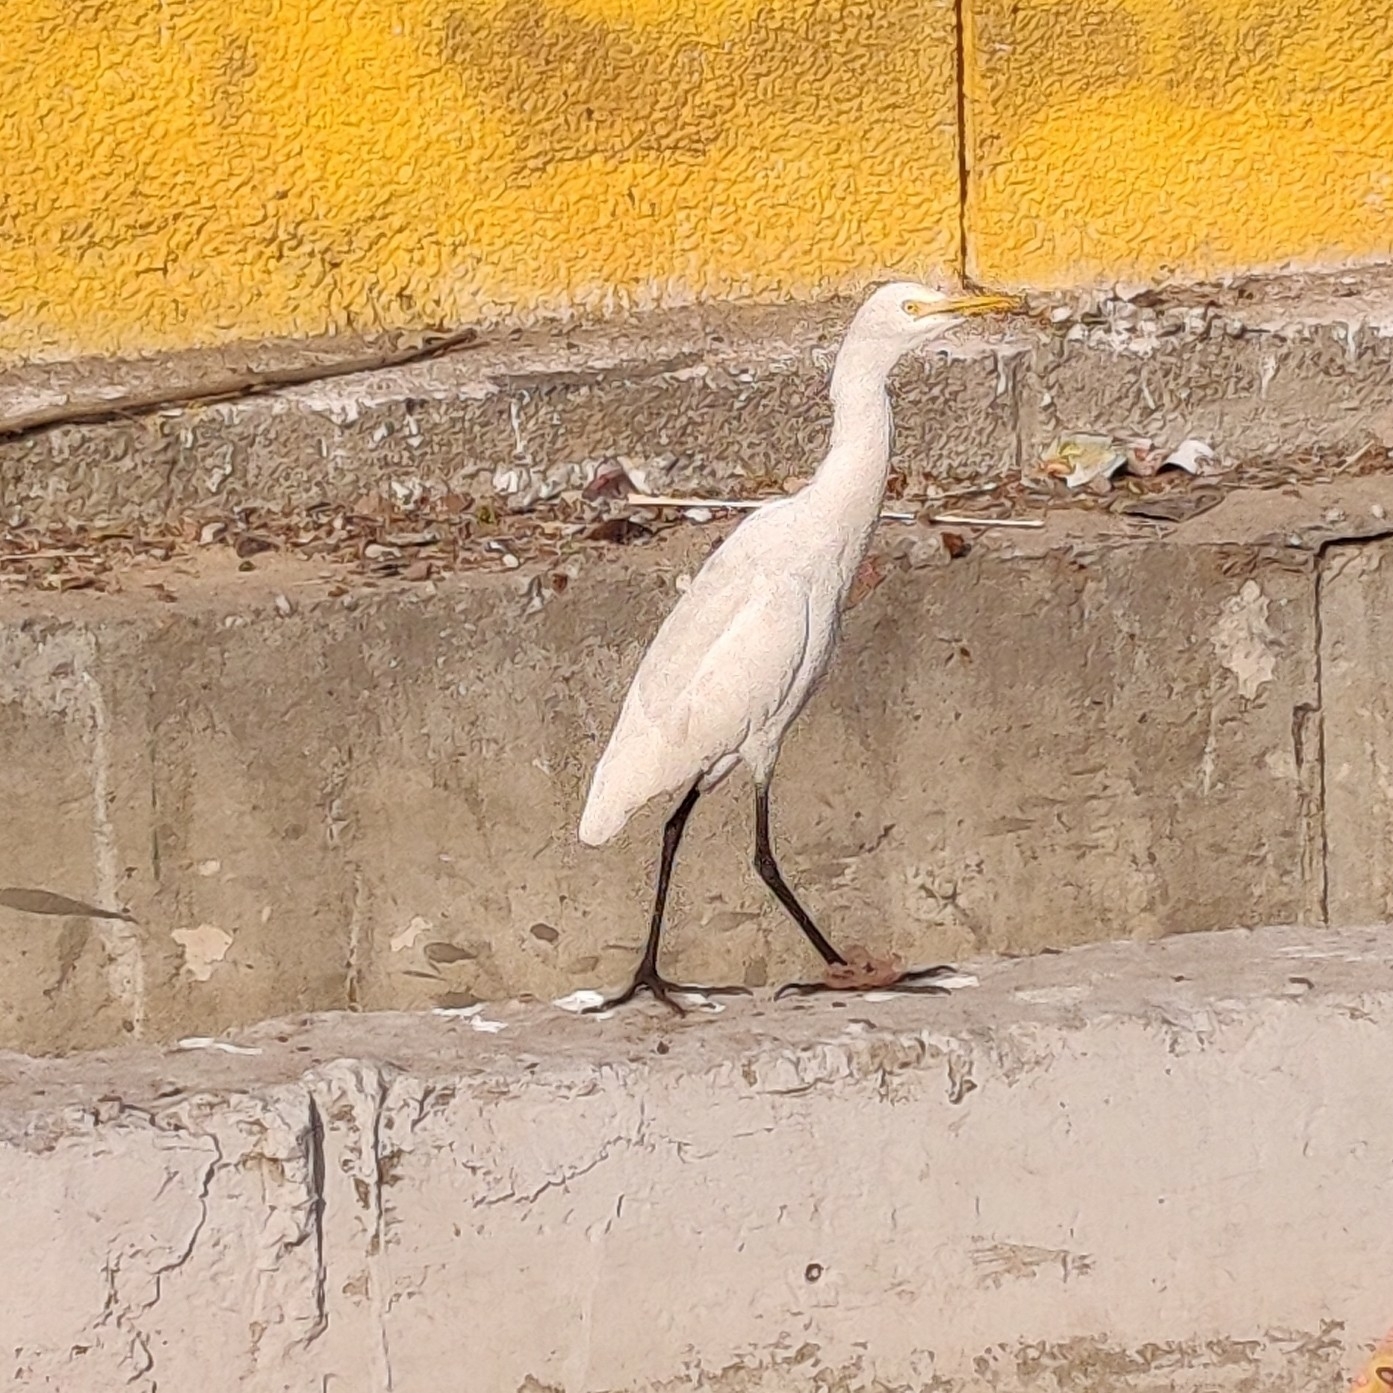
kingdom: Animalia
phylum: Chordata
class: Aves
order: Pelecaniformes
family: Ardeidae
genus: Bubulcus
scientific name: Bubulcus coromandus
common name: Eastern cattle egret
